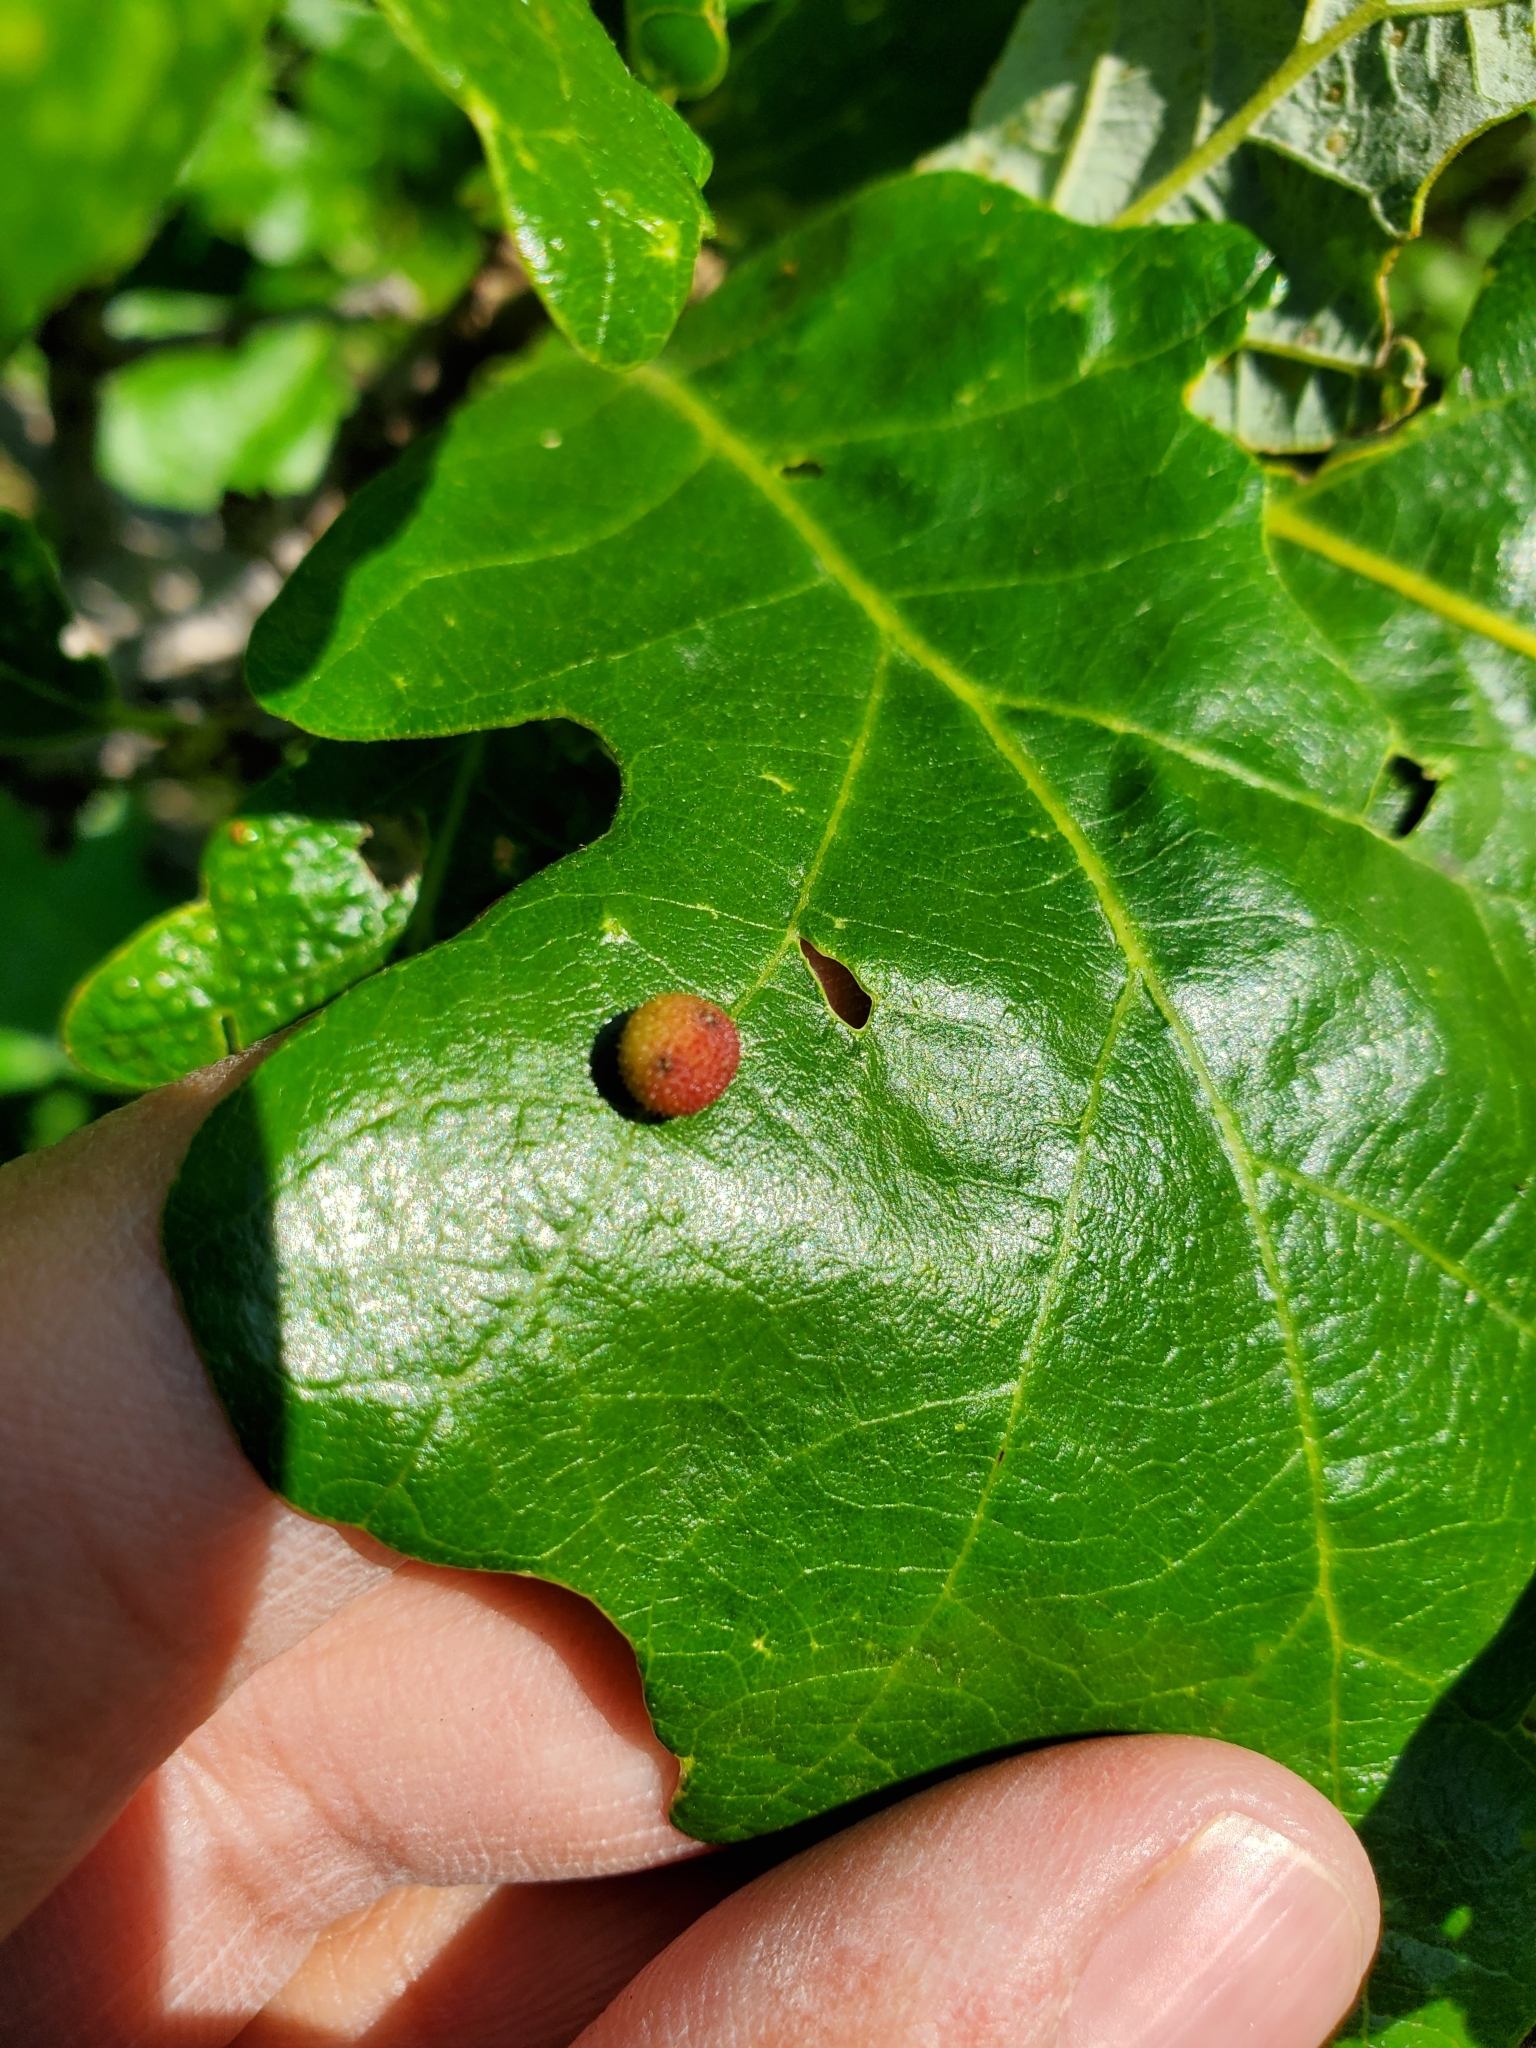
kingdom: Animalia
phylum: Arthropoda
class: Insecta
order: Hymenoptera
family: Cynipidae
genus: Acraspis
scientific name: Acraspis quercushirta
